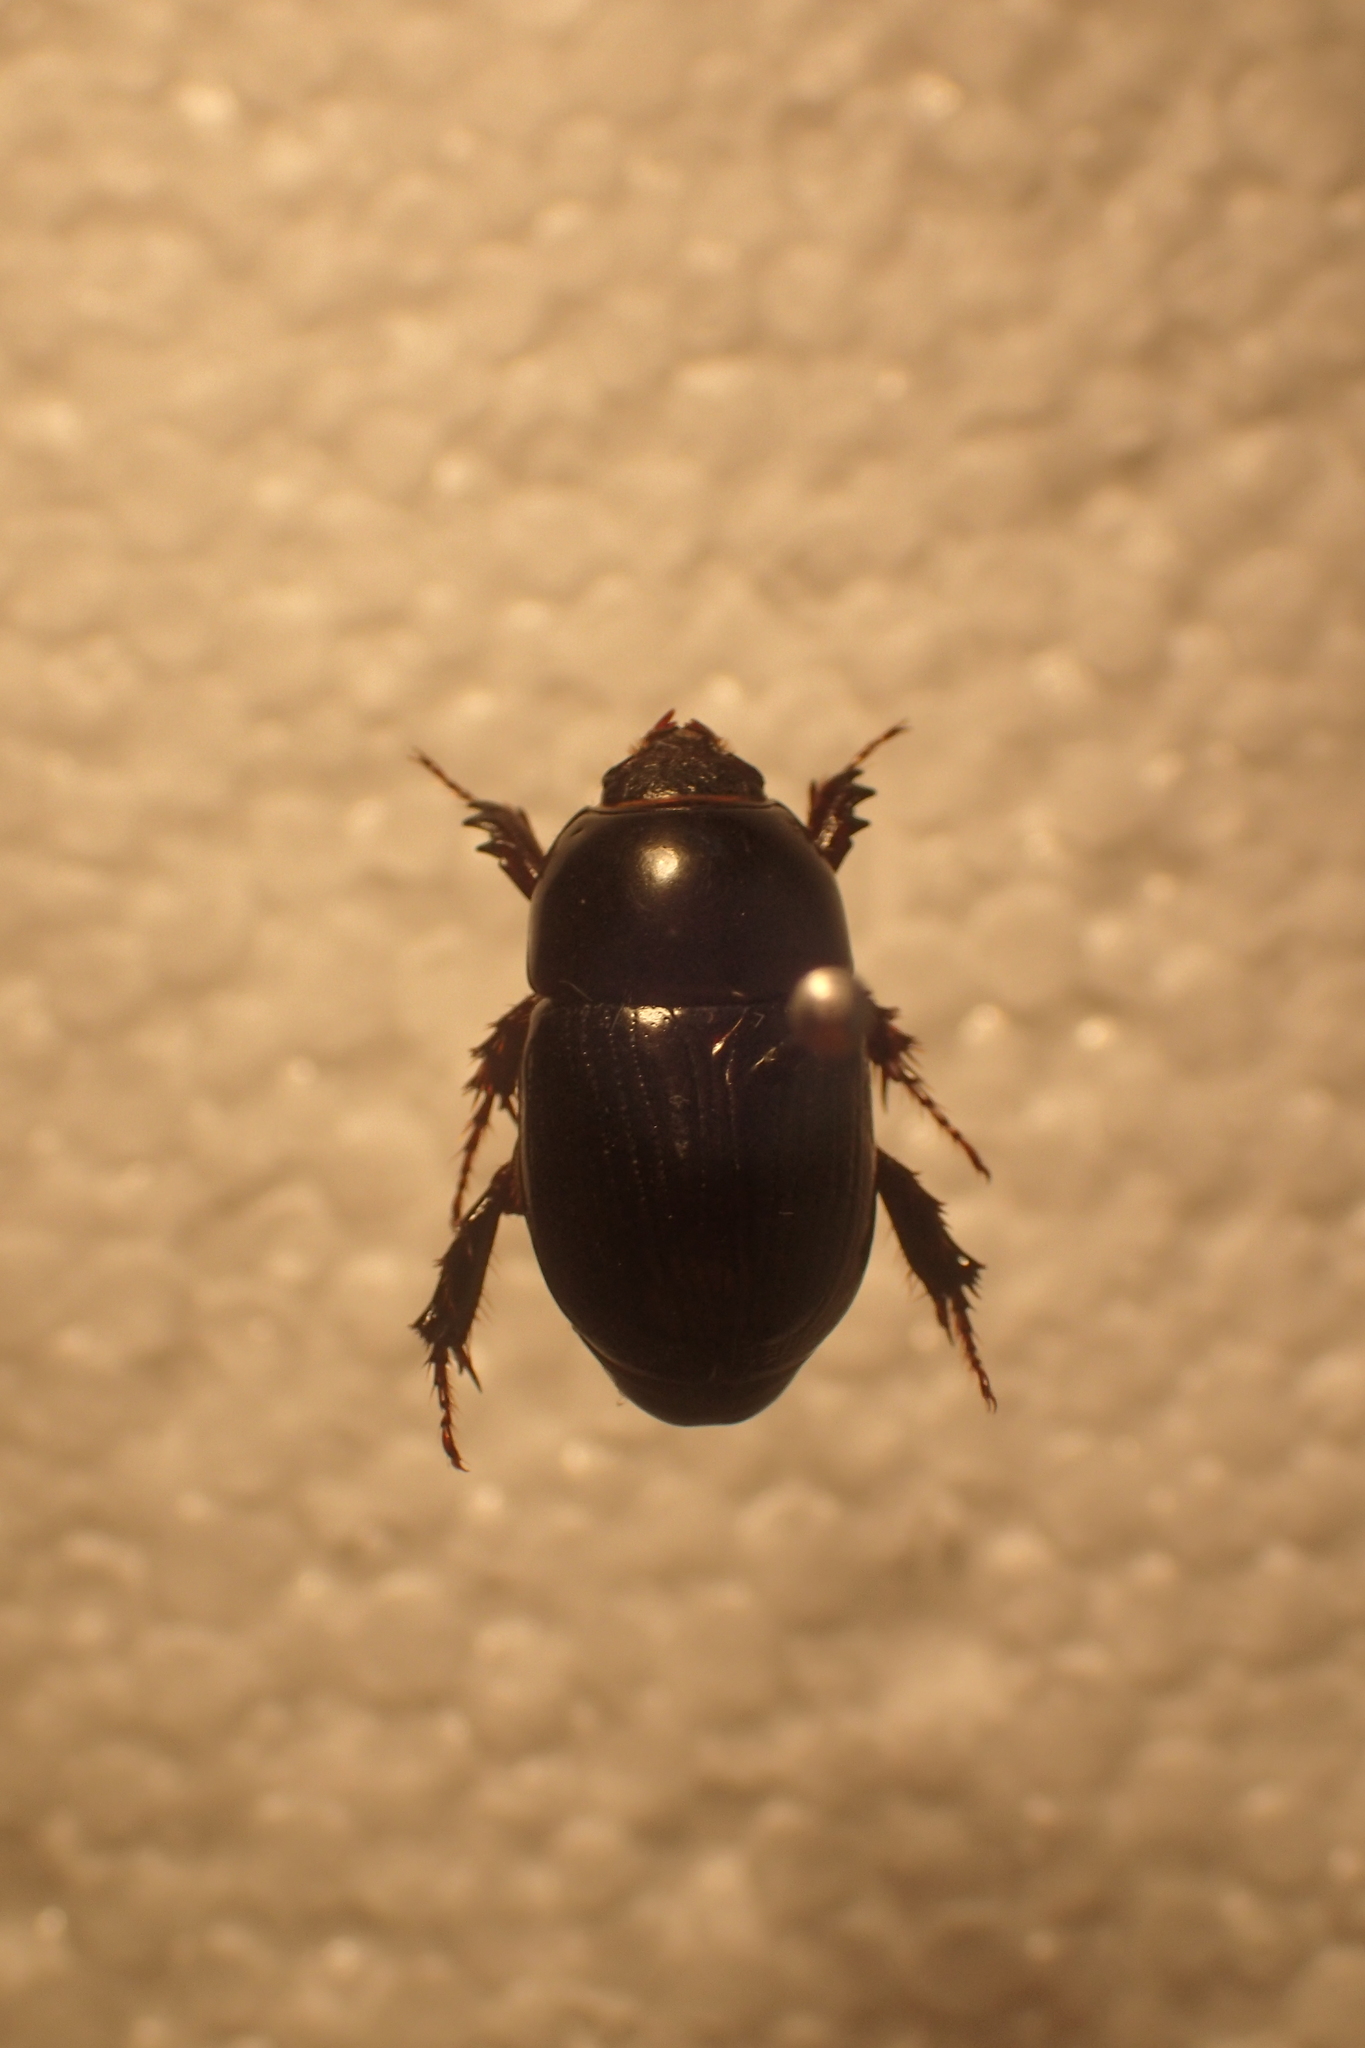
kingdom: Animalia
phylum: Arthropoda
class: Insecta
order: Coleoptera
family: Scarabaeidae
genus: Heteronychus
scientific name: Heteronychus arator
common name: African black beetle
